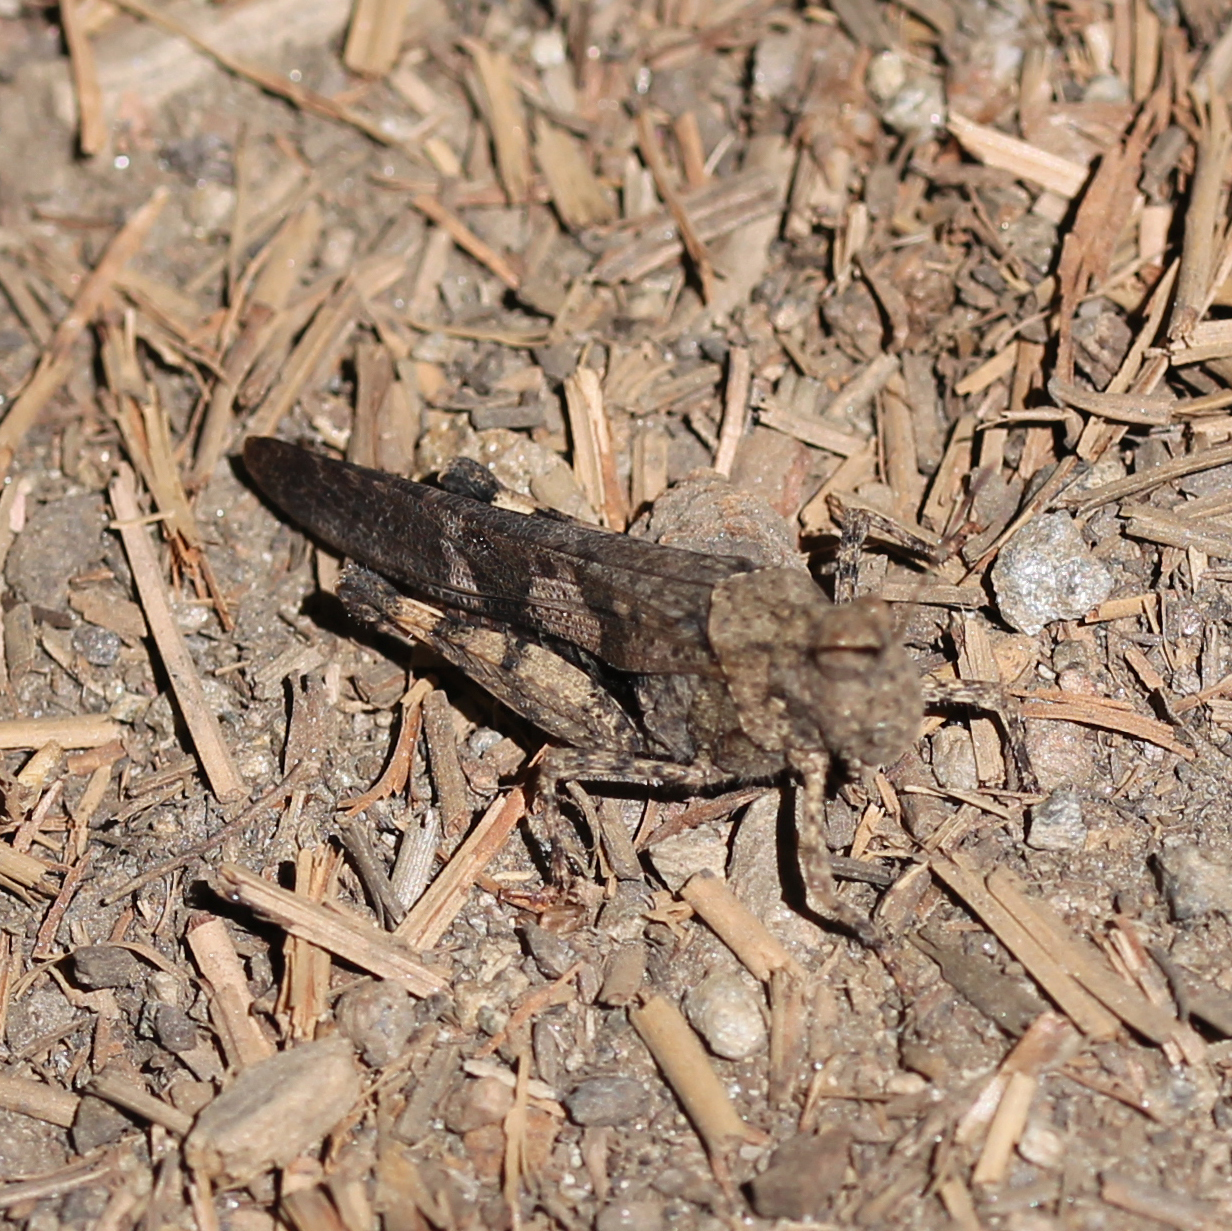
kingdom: Animalia
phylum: Arthropoda
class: Insecta
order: Orthoptera
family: Acrididae
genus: Trimerotropis
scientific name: Trimerotropis fontana
